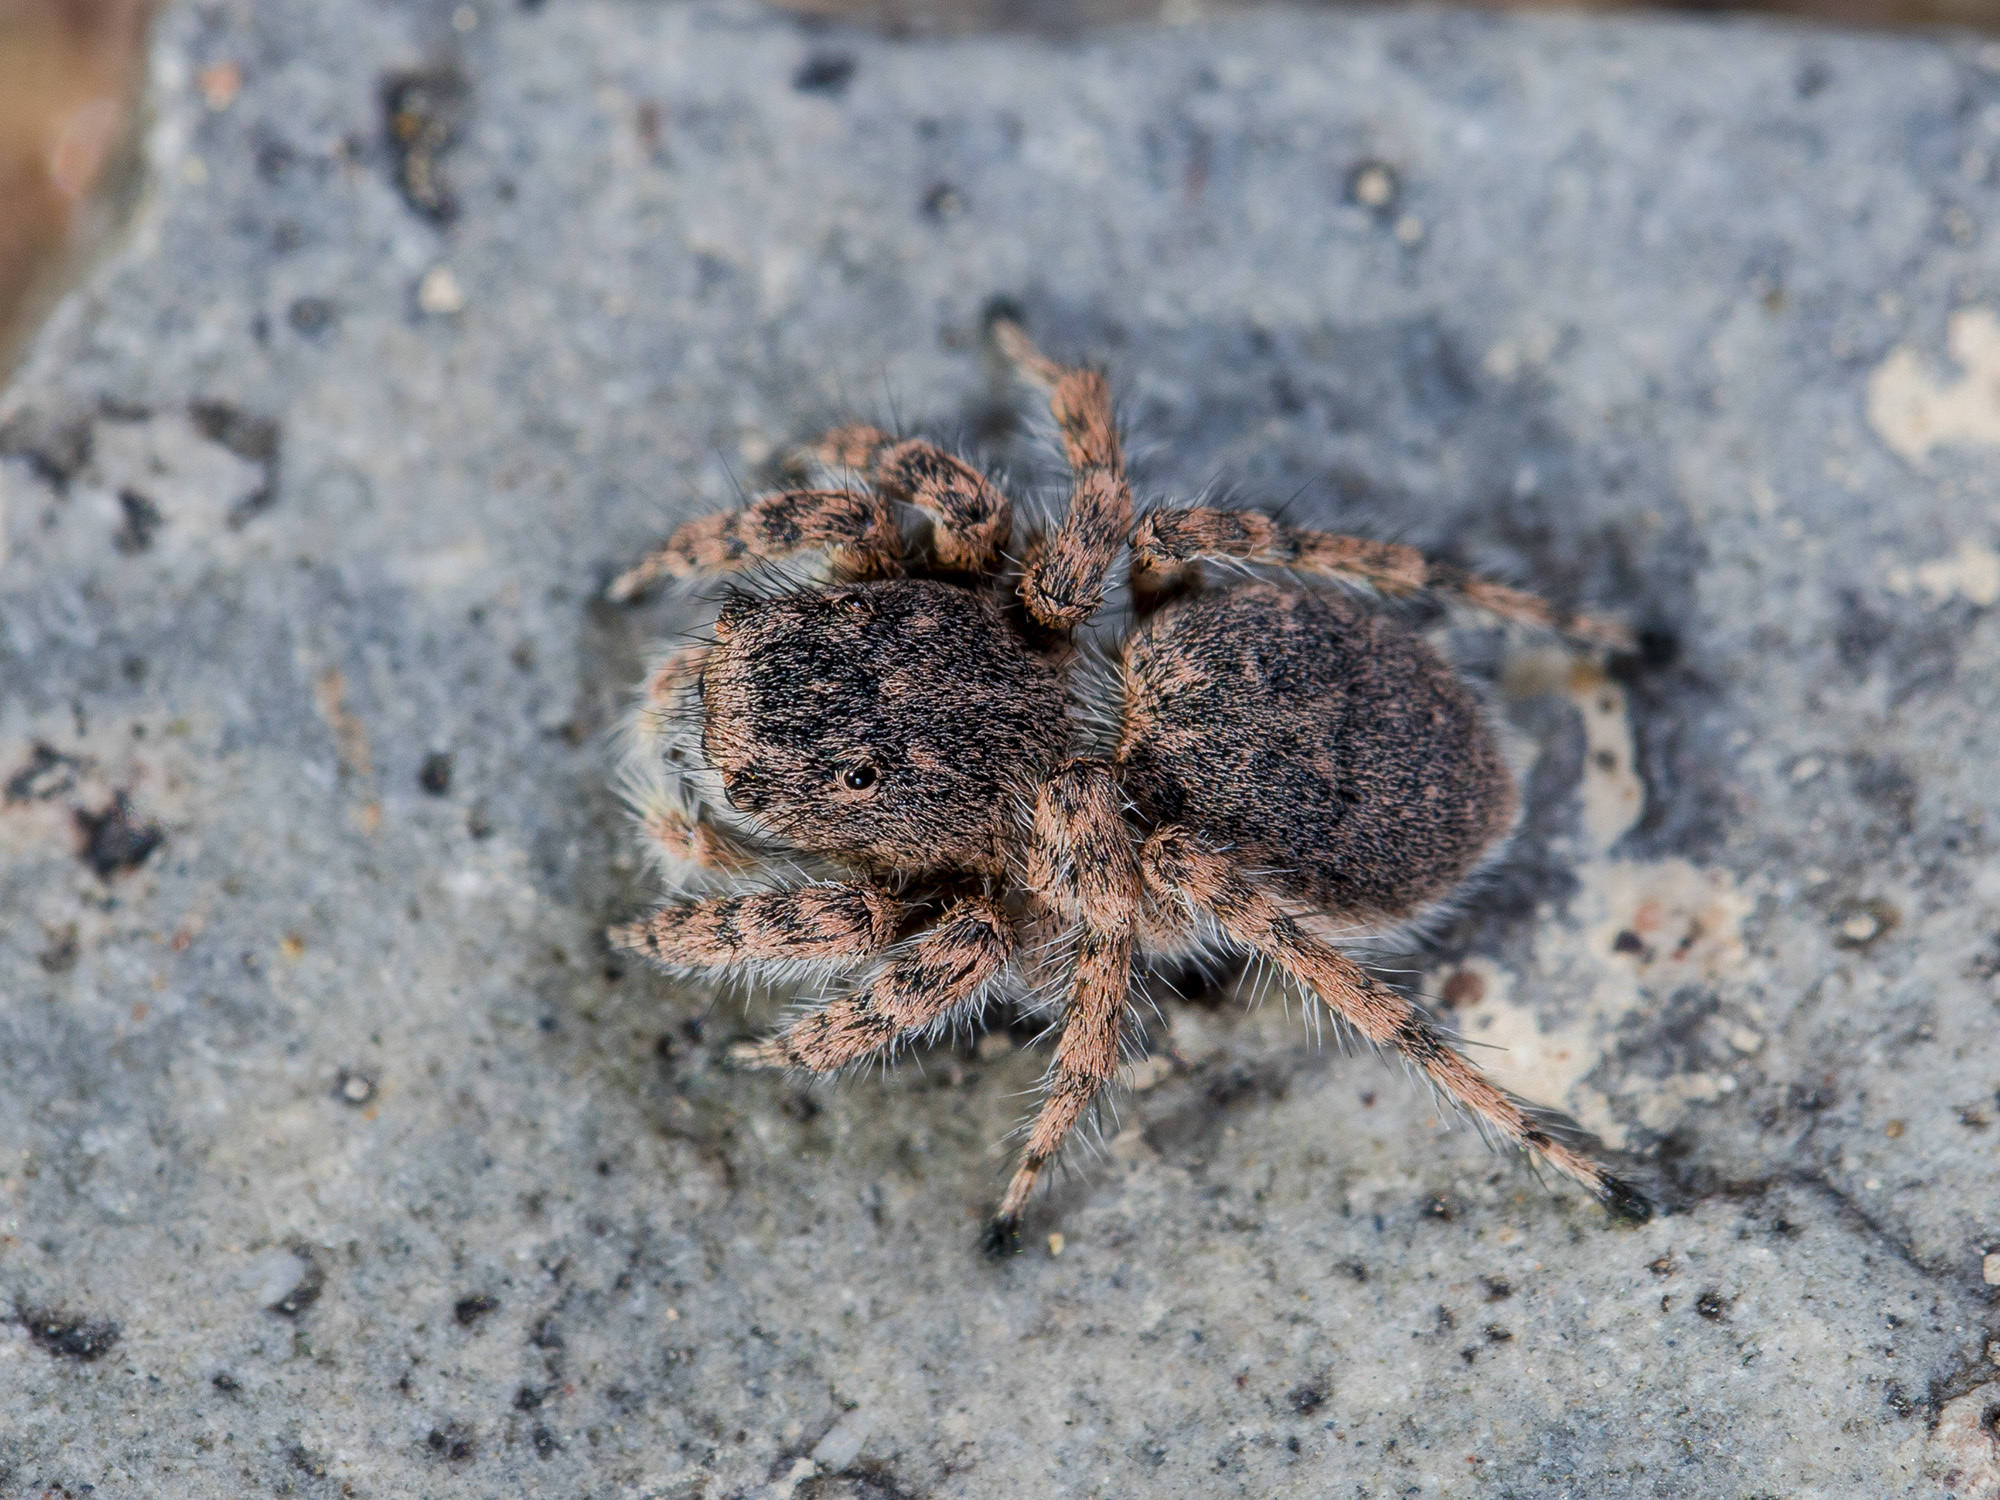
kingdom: Animalia
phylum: Arthropoda
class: Arachnida
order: Araneae
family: Salticidae
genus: Aelurillus
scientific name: Aelurillus dubatolovi
